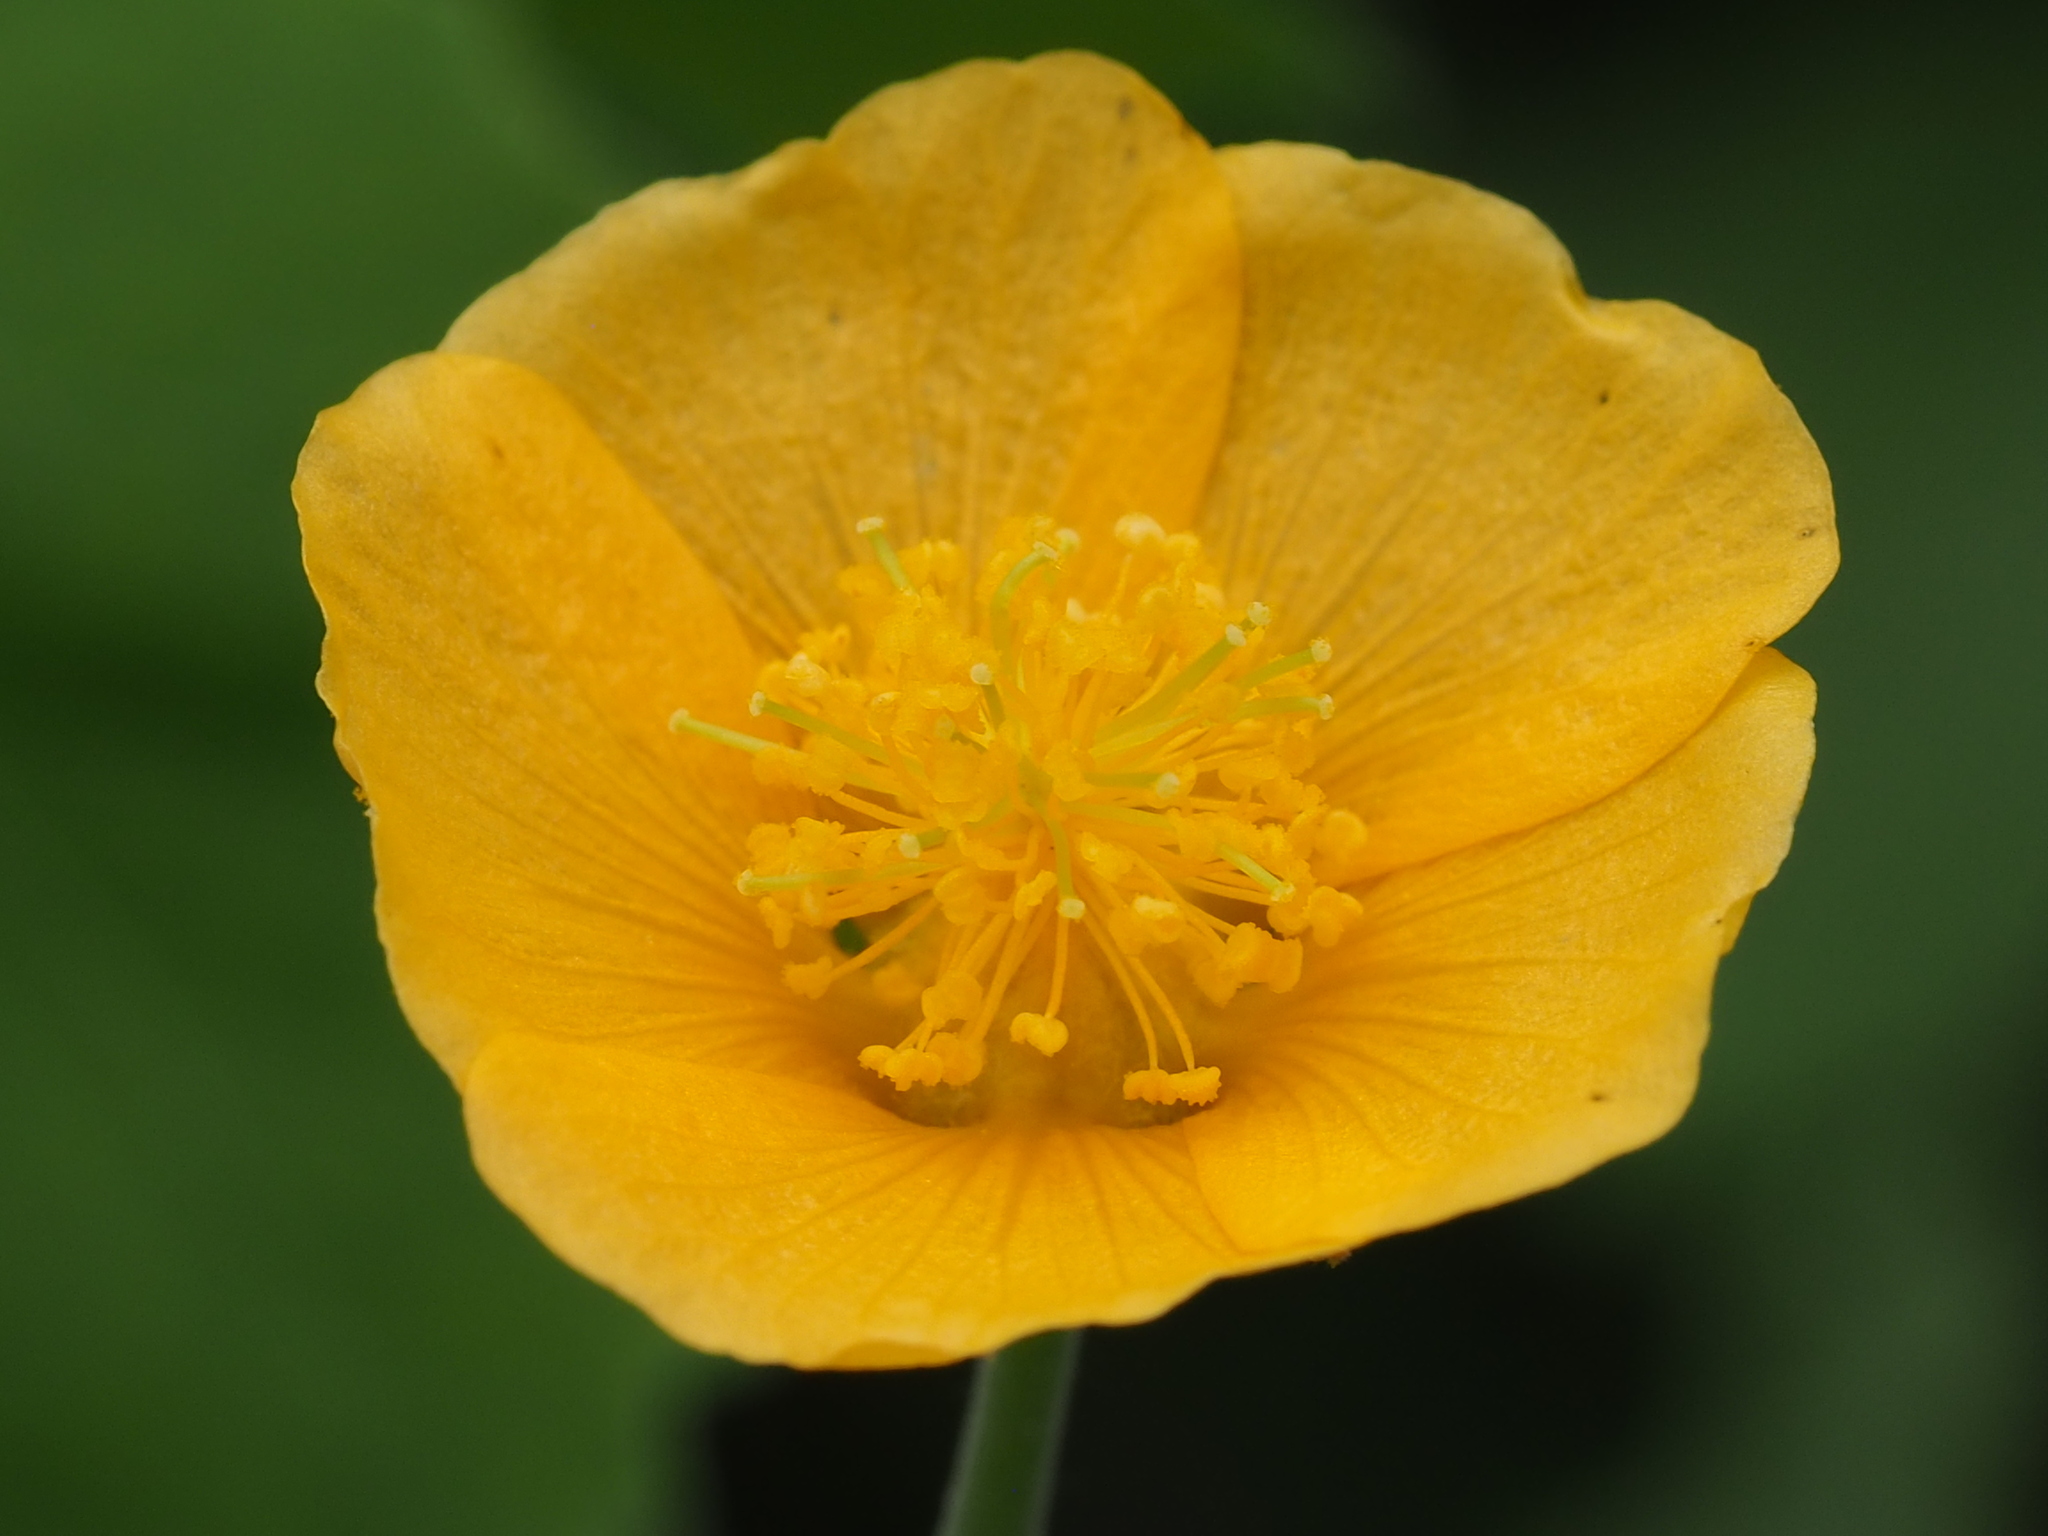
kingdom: Plantae
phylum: Tracheophyta
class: Magnoliopsida
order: Malvales
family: Malvaceae
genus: Abutilon
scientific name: Abutilon indicum
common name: Indian abutilon
